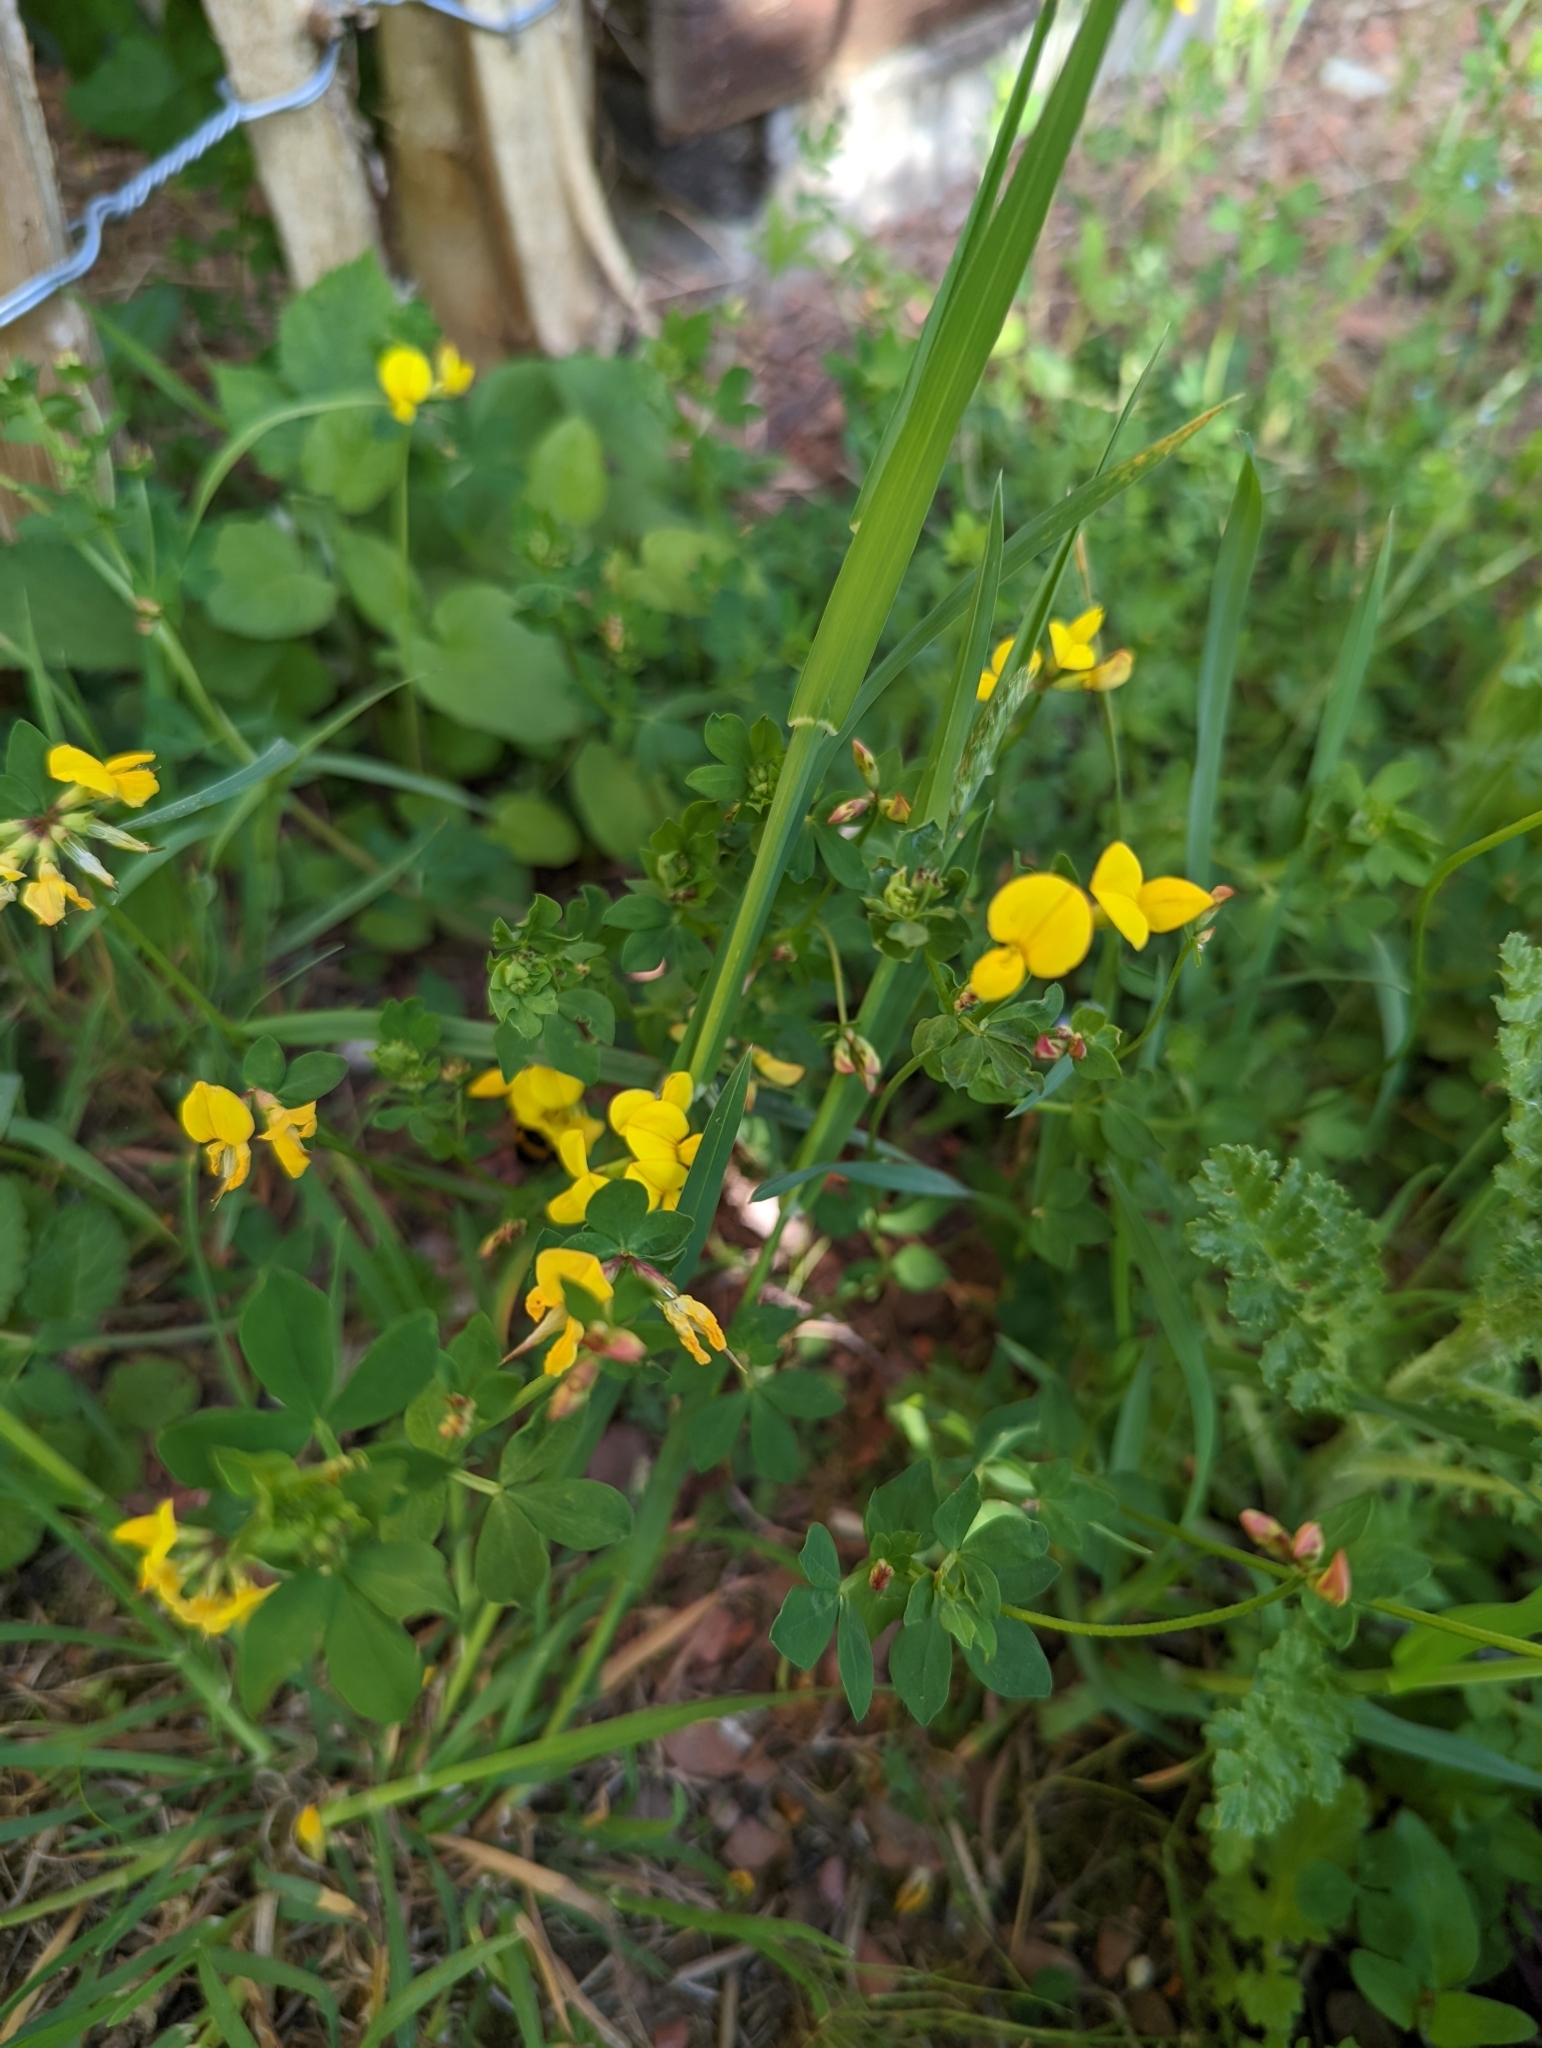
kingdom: Plantae
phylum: Tracheophyta
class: Magnoliopsida
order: Fabales
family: Fabaceae
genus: Lotus
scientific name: Lotus corniculatus
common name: Common bird's-foot-trefoil
